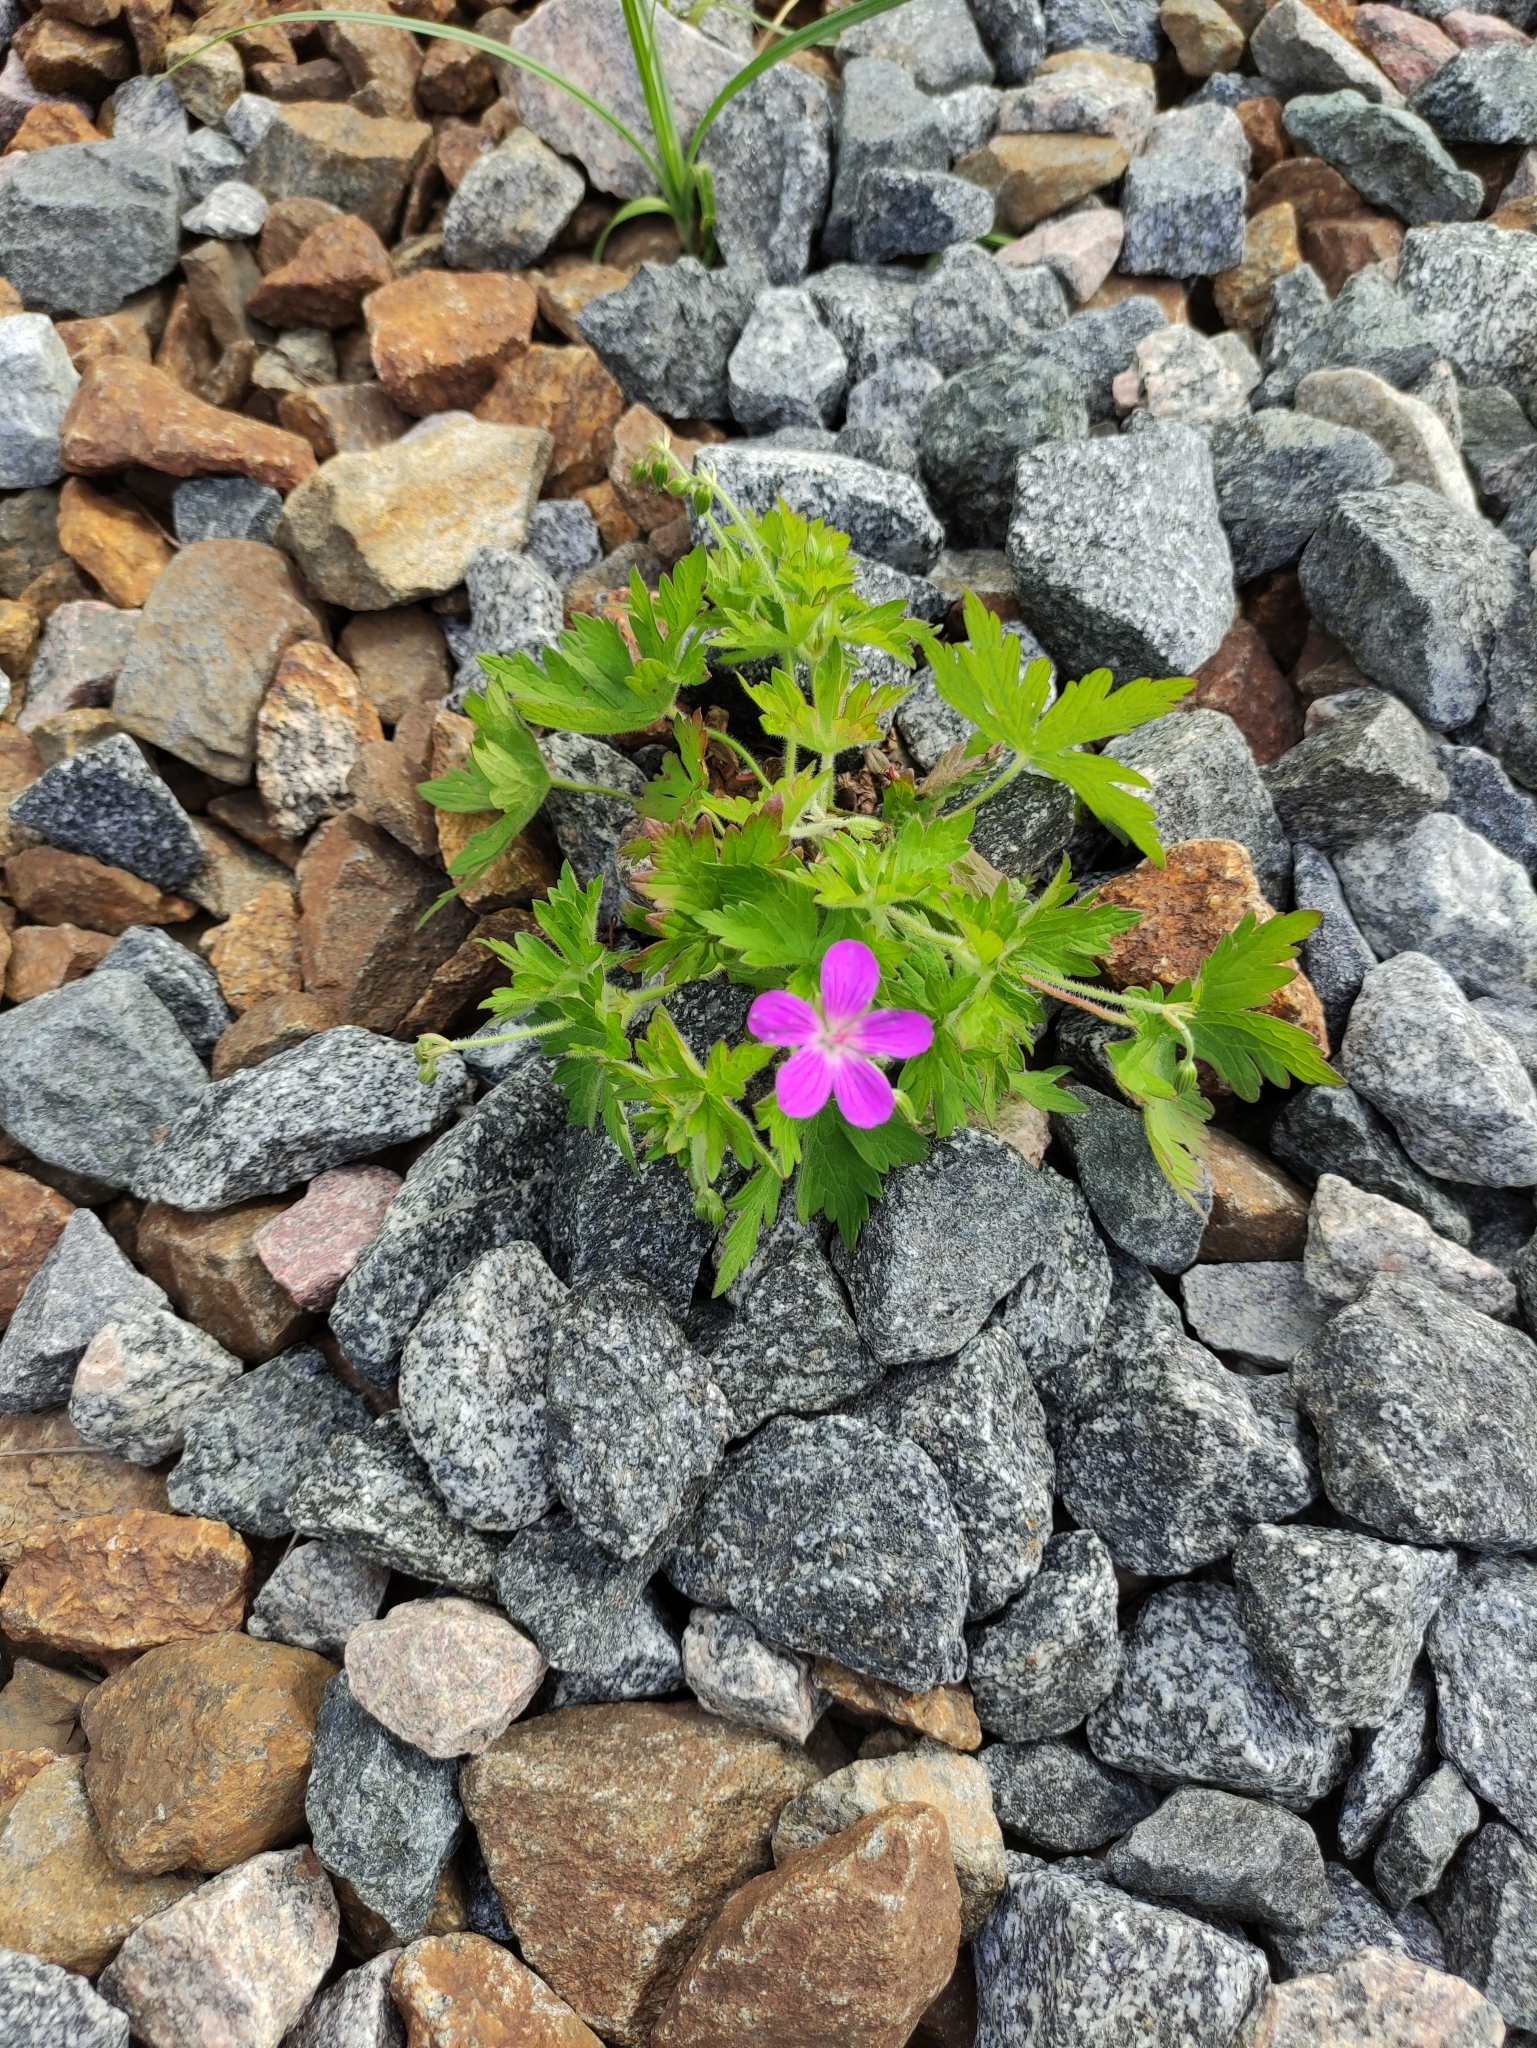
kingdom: Plantae
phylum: Tracheophyta
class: Magnoliopsida
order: Geraniales
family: Geraniaceae
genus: Geranium
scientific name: Geranium palustre
